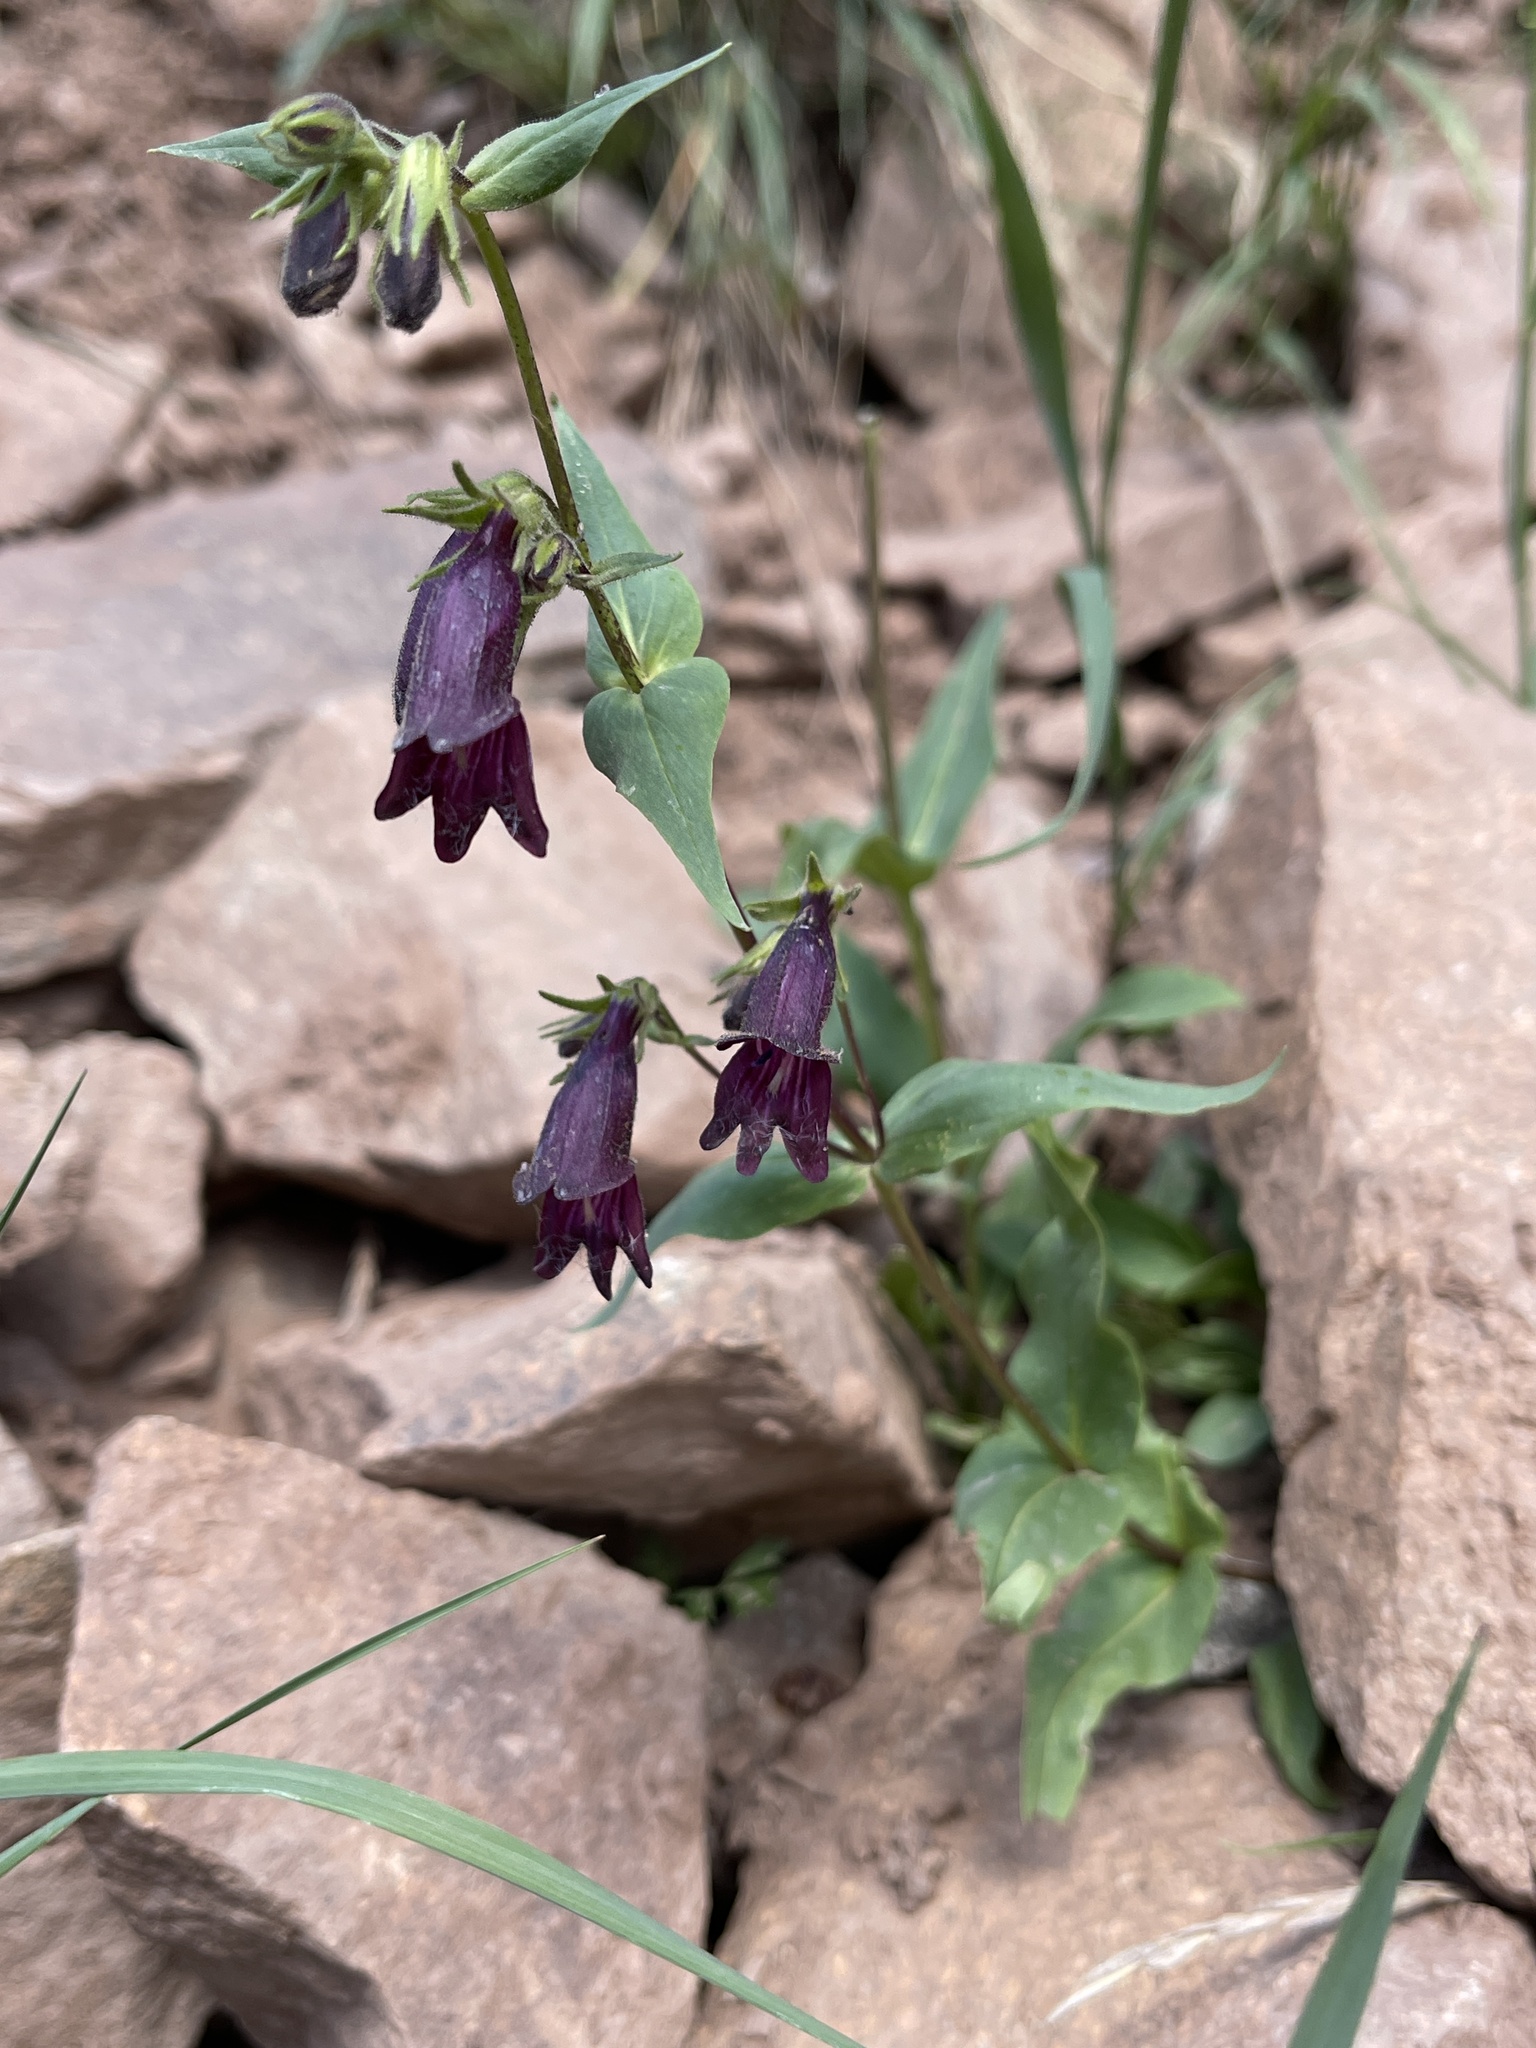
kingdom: Plantae
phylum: Tracheophyta
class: Magnoliopsida
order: Lamiales
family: Plantaginaceae
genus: Penstemon
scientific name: Penstemon whippleanus
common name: Whipple's penstemon
